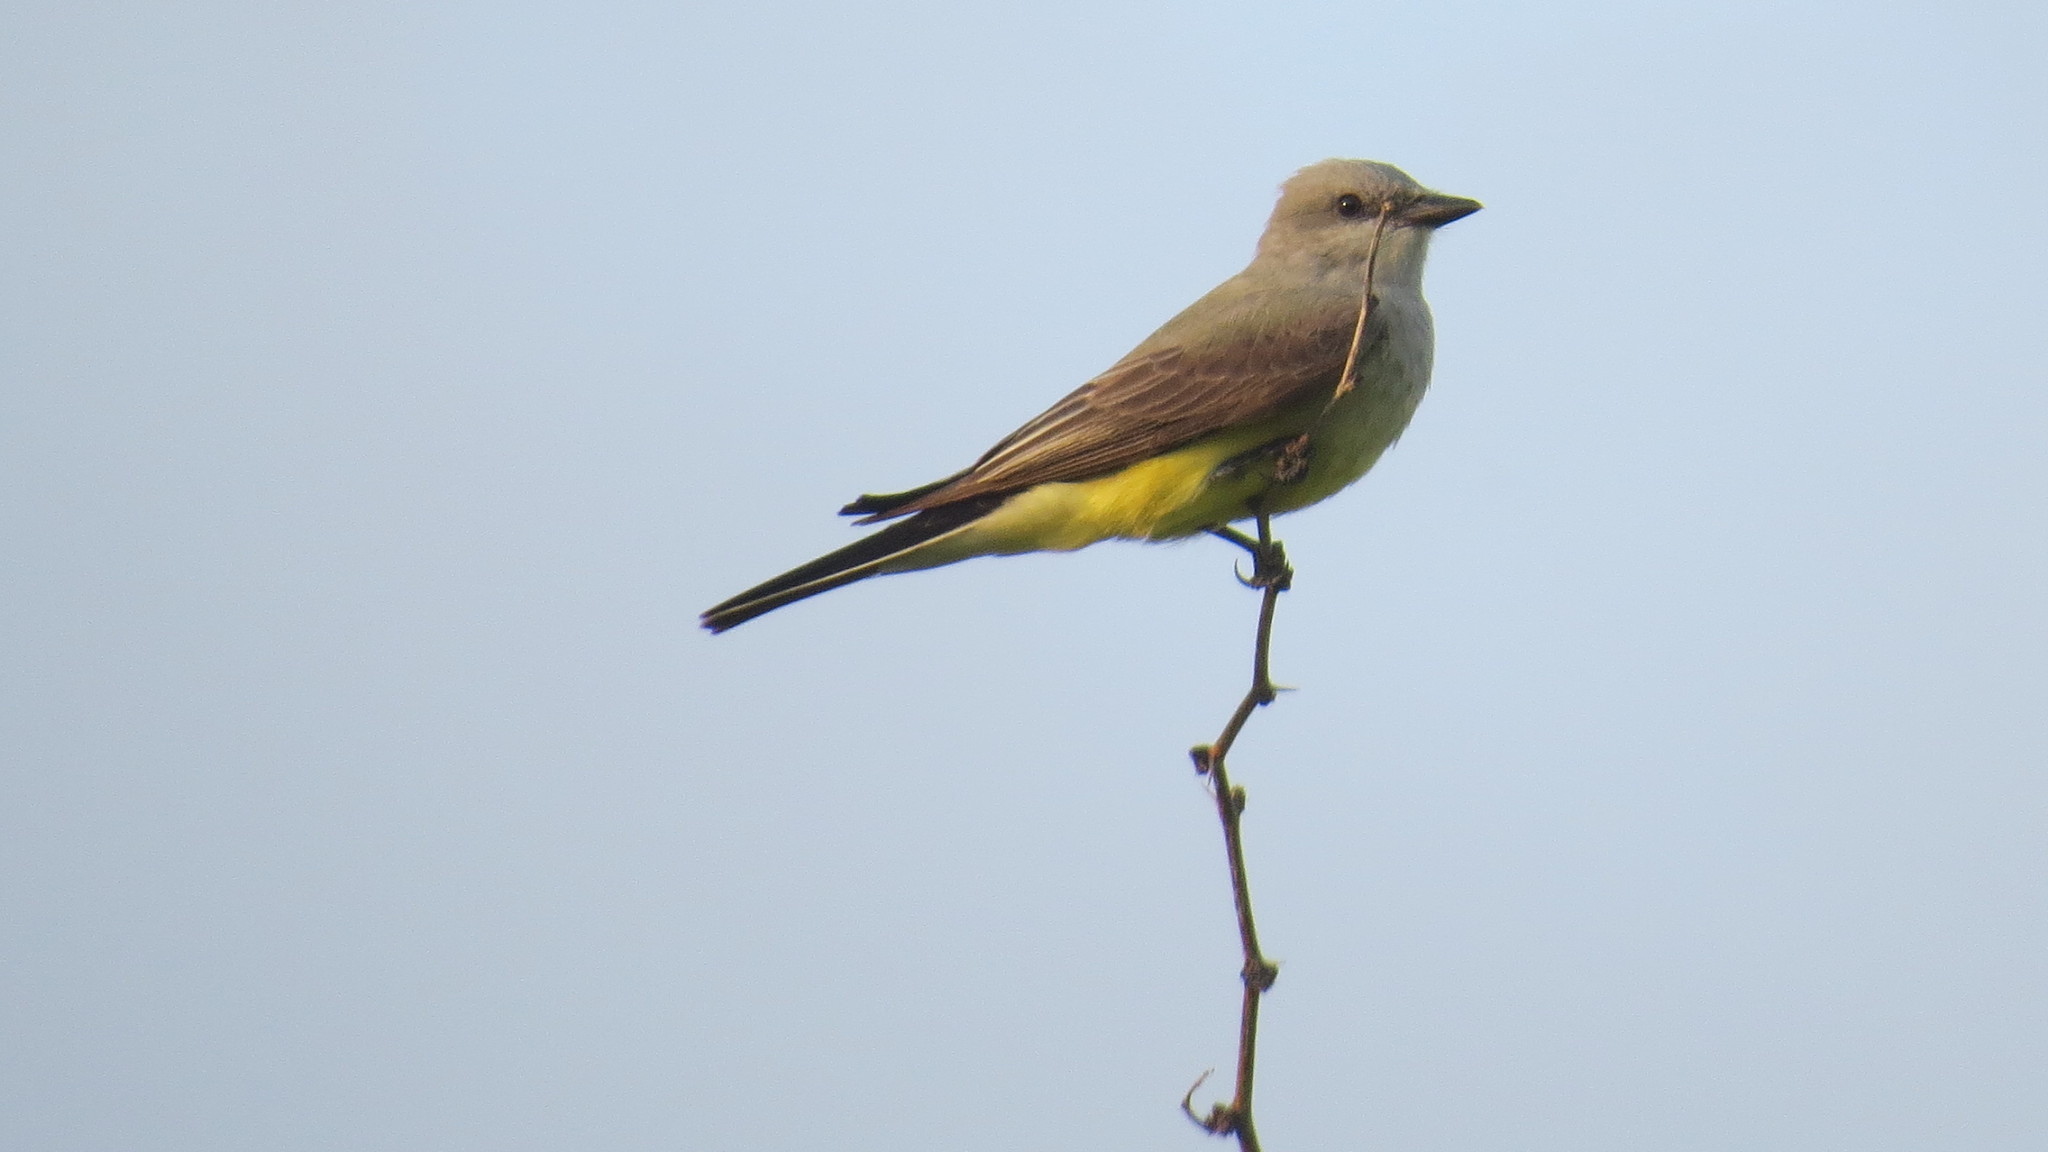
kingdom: Animalia
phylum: Chordata
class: Aves
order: Passeriformes
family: Tyrannidae
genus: Tyrannus
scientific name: Tyrannus verticalis
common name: Western kingbird
